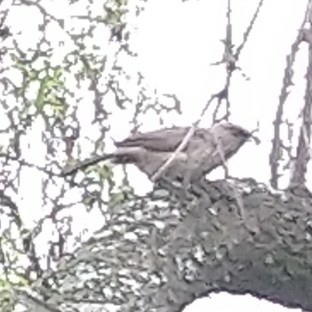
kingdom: Animalia
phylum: Chordata
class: Aves
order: Passeriformes
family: Leiothrichidae
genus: Turdoides
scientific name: Turdoides jardineii
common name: Arrow-marked babbler
